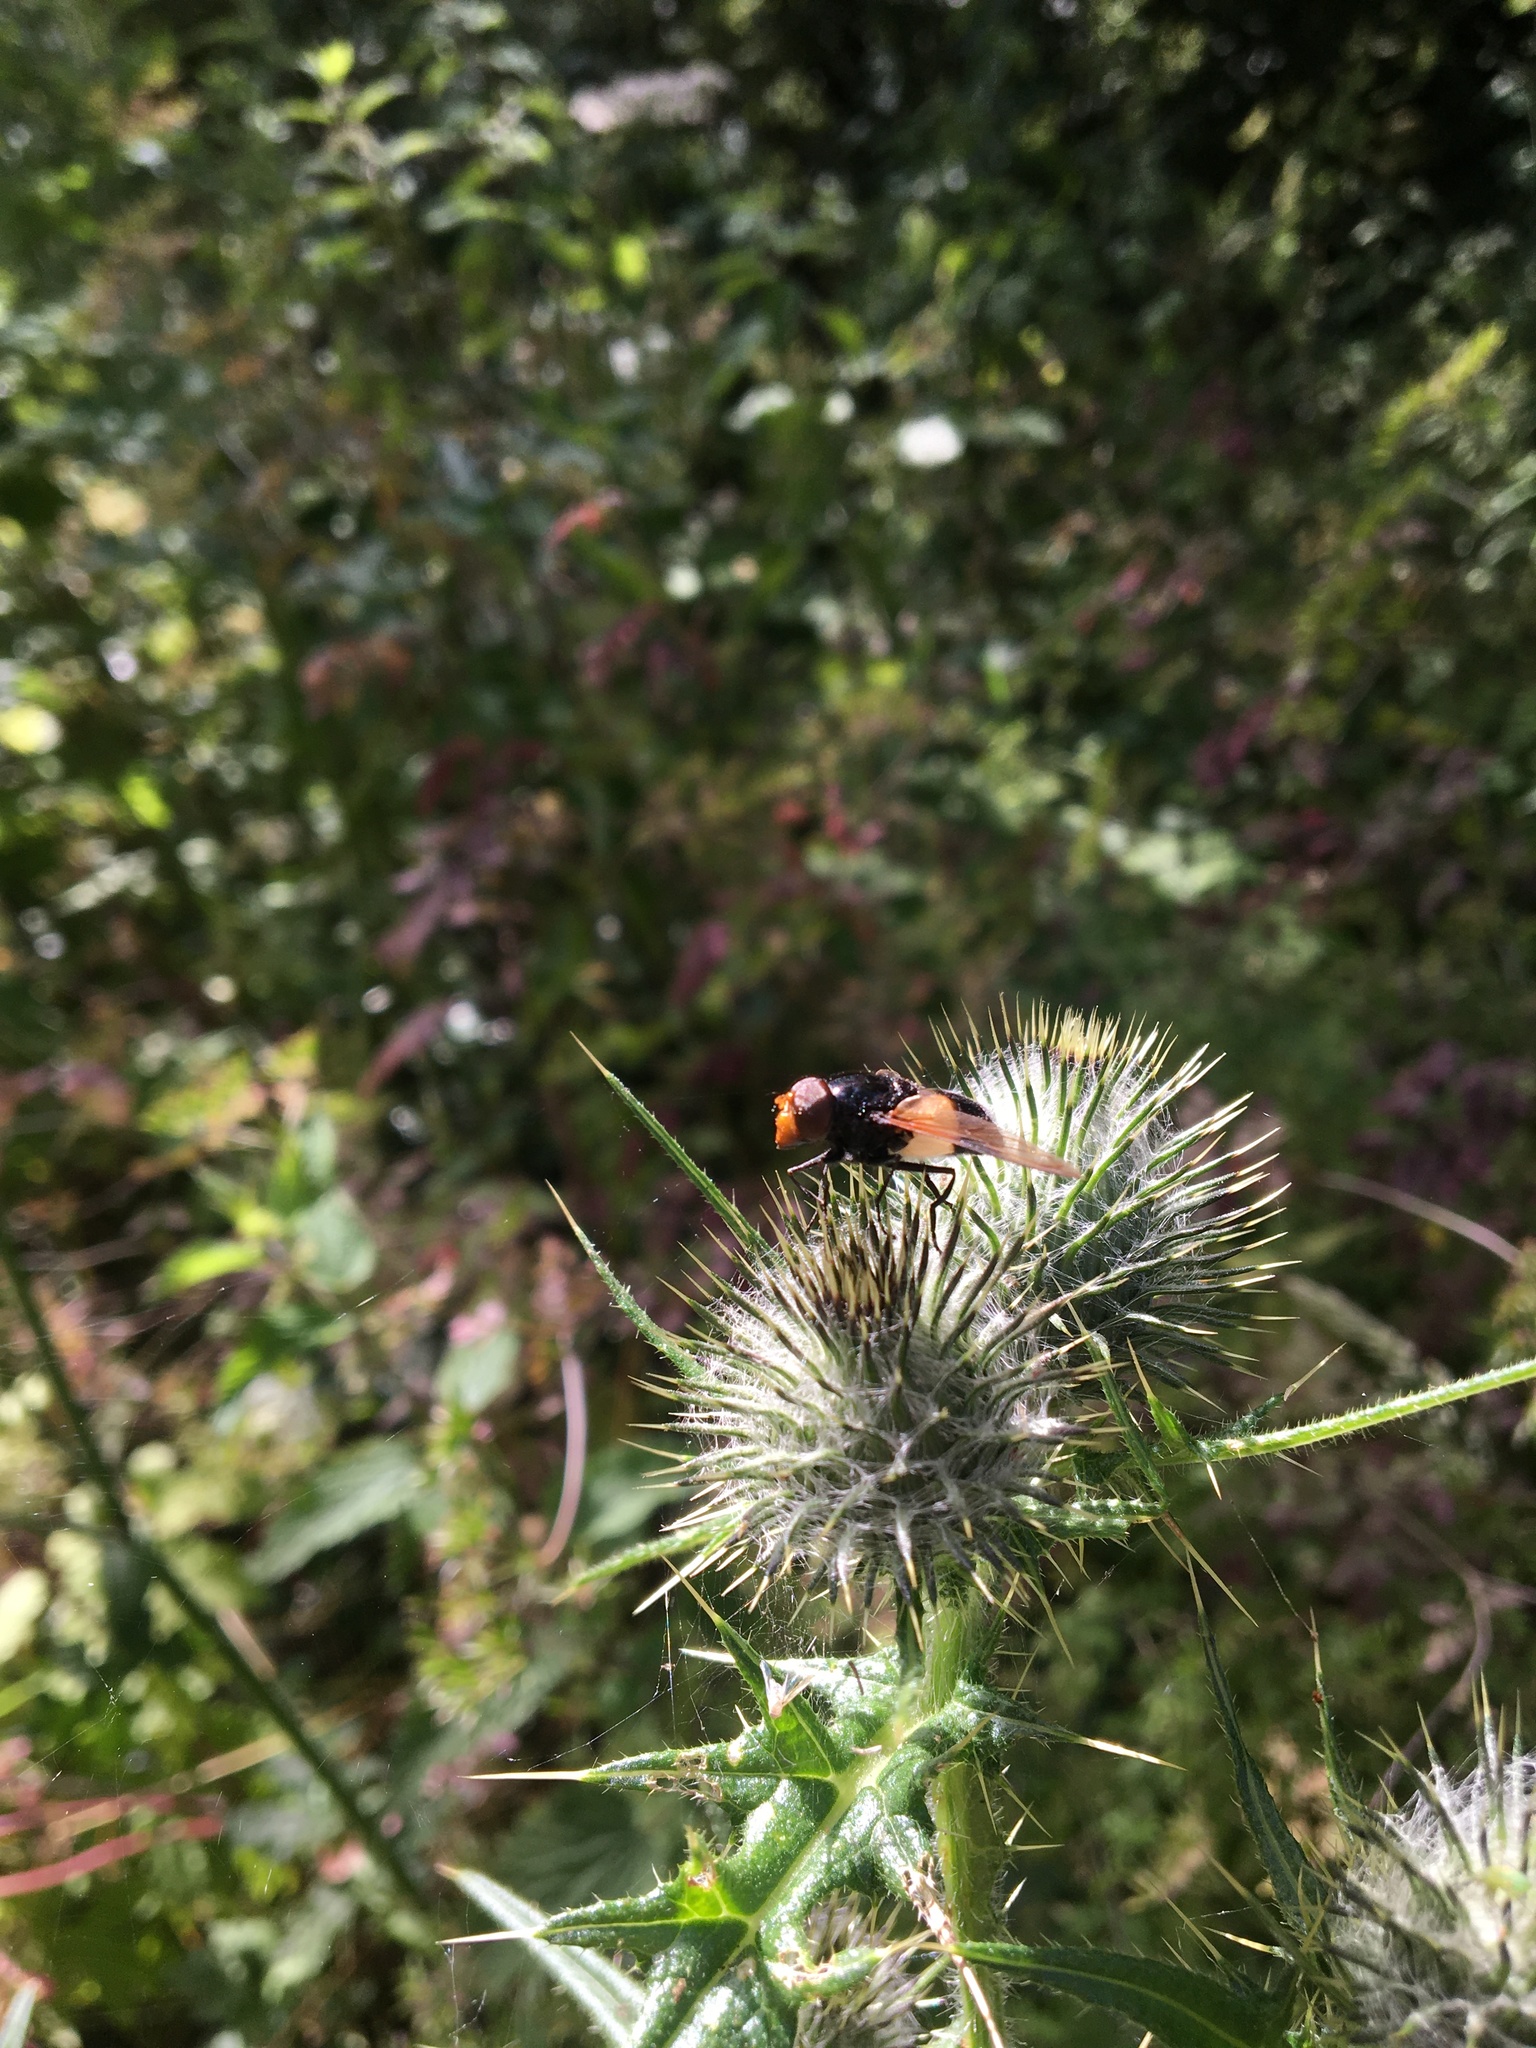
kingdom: Animalia
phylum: Arthropoda
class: Insecta
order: Diptera
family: Syrphidae
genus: Volucella
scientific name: Volucella pellucens
